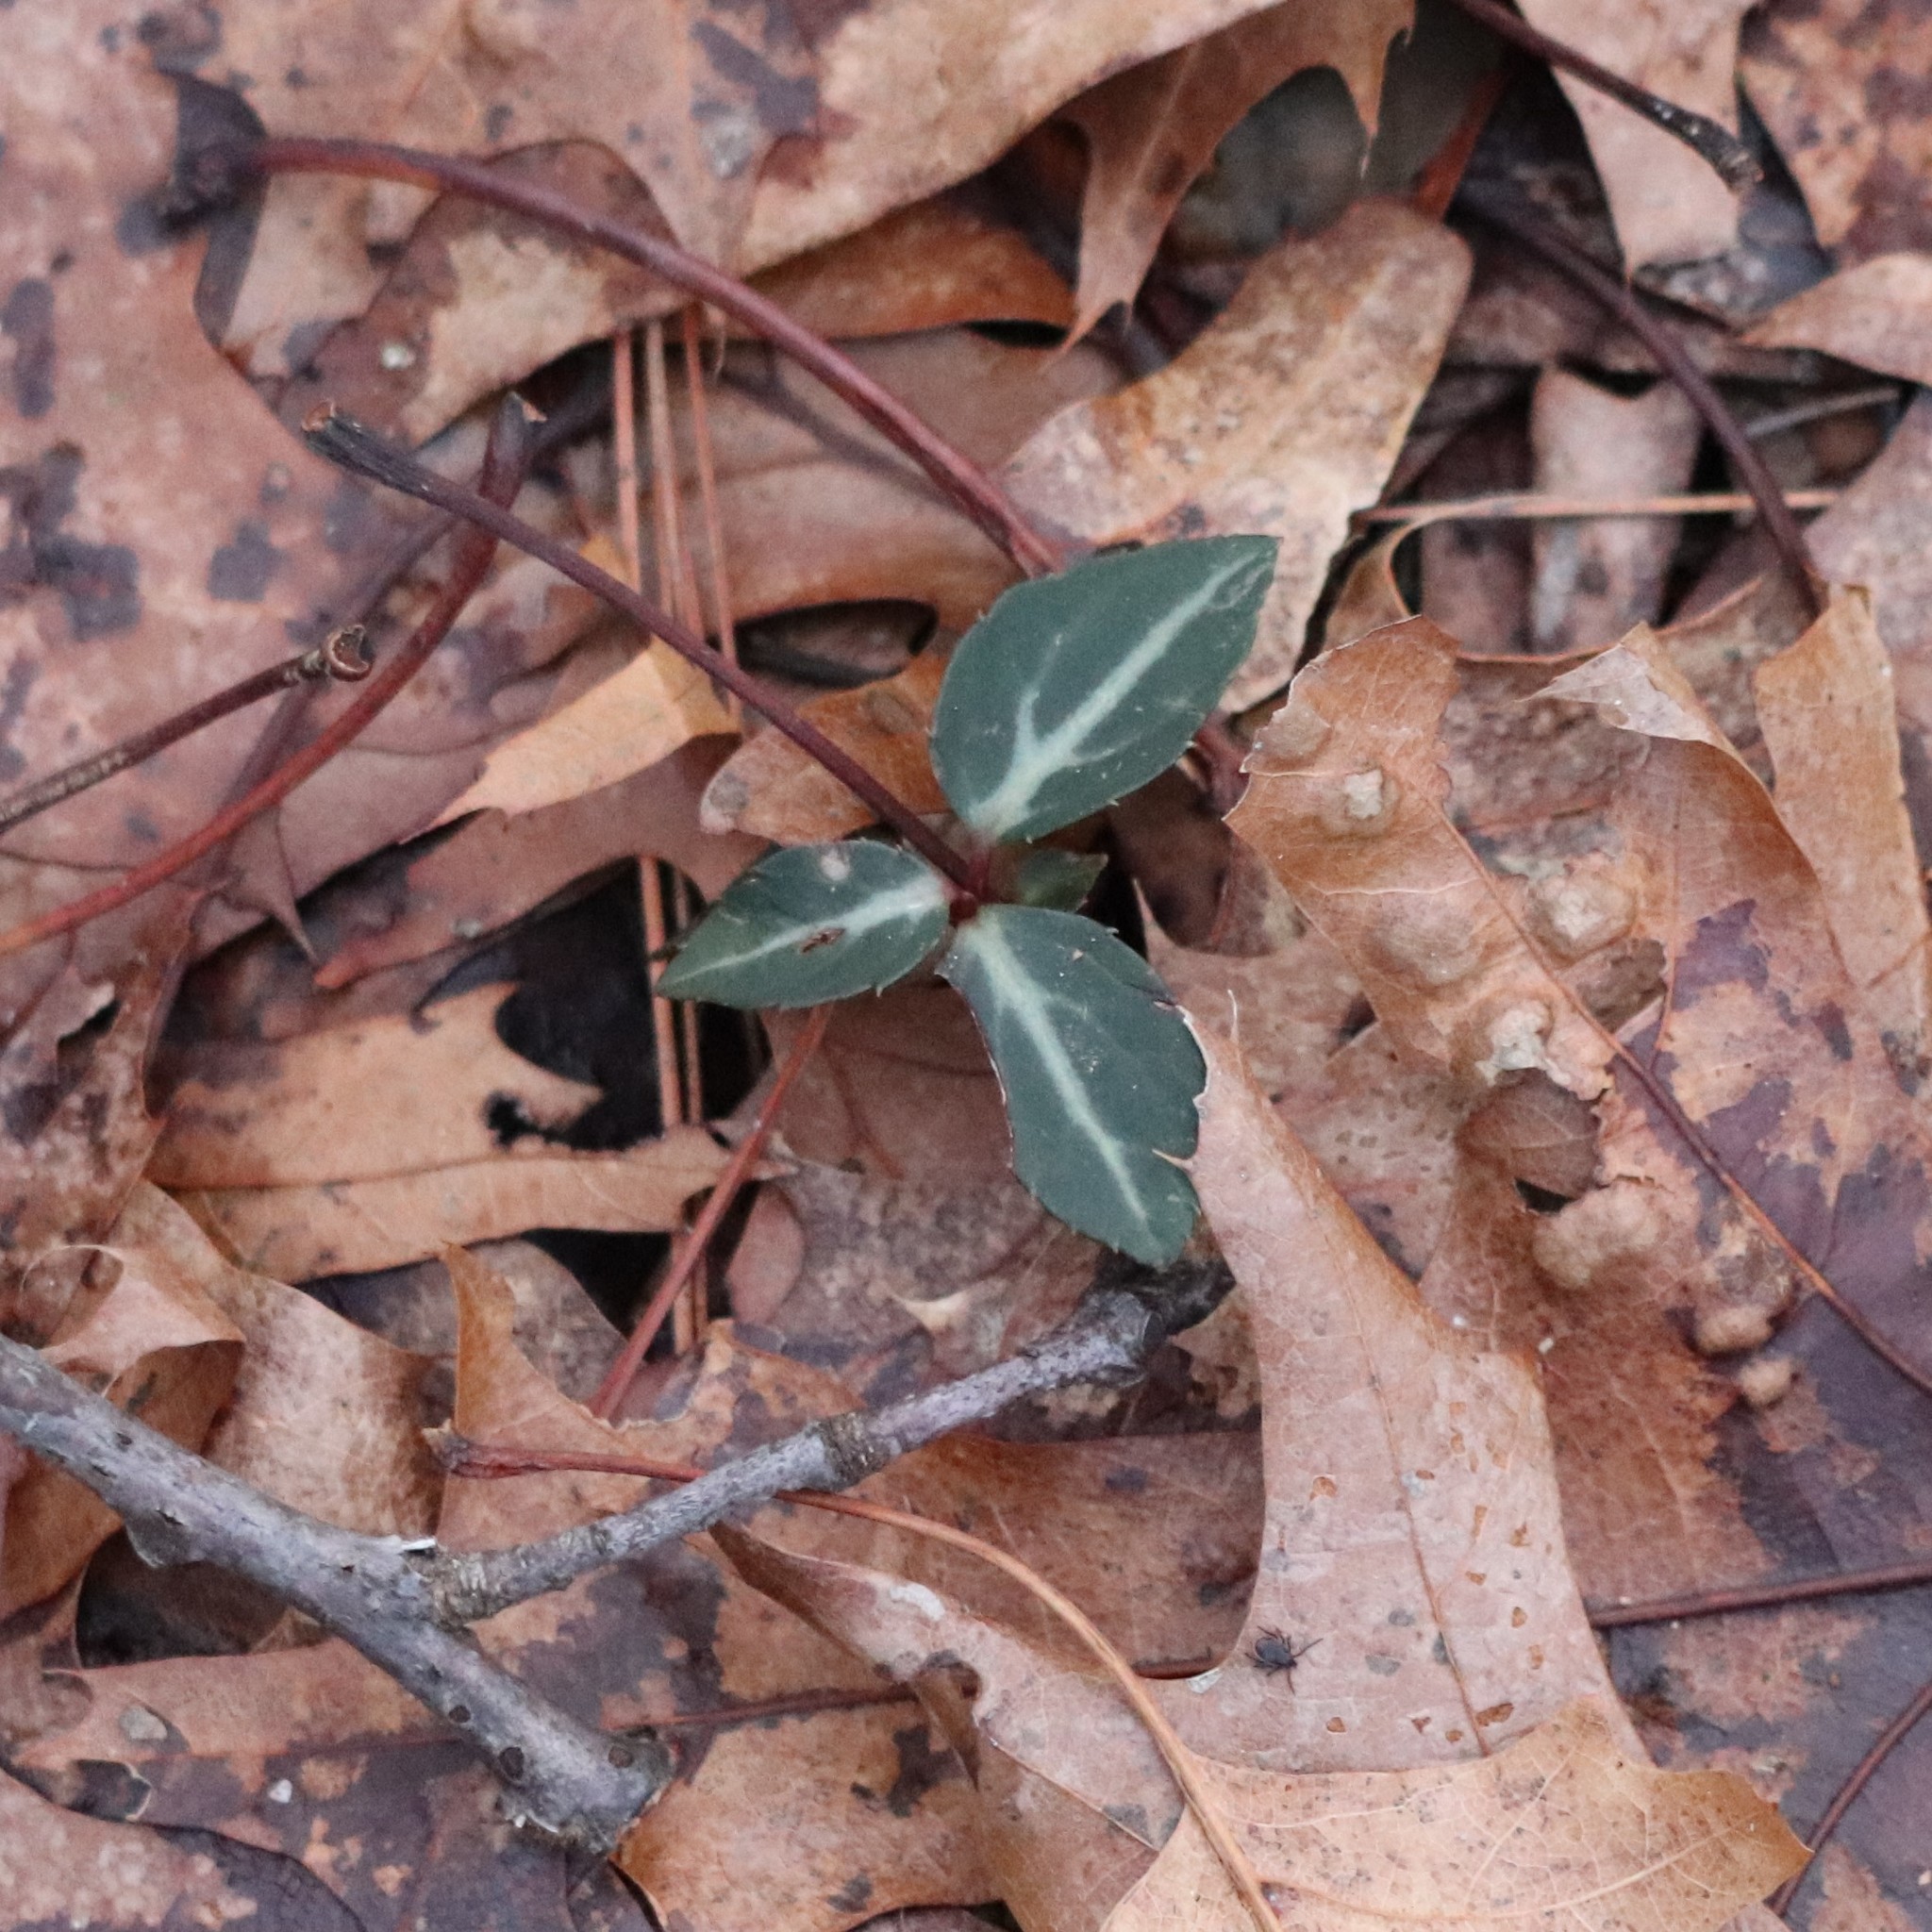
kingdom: Plantae
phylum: Tracheophyta
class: Magnoliopsida
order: Ericales
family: Ericaceae
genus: Chimaphila
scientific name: Chimaphila maculata
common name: Spotted pipsissewa
